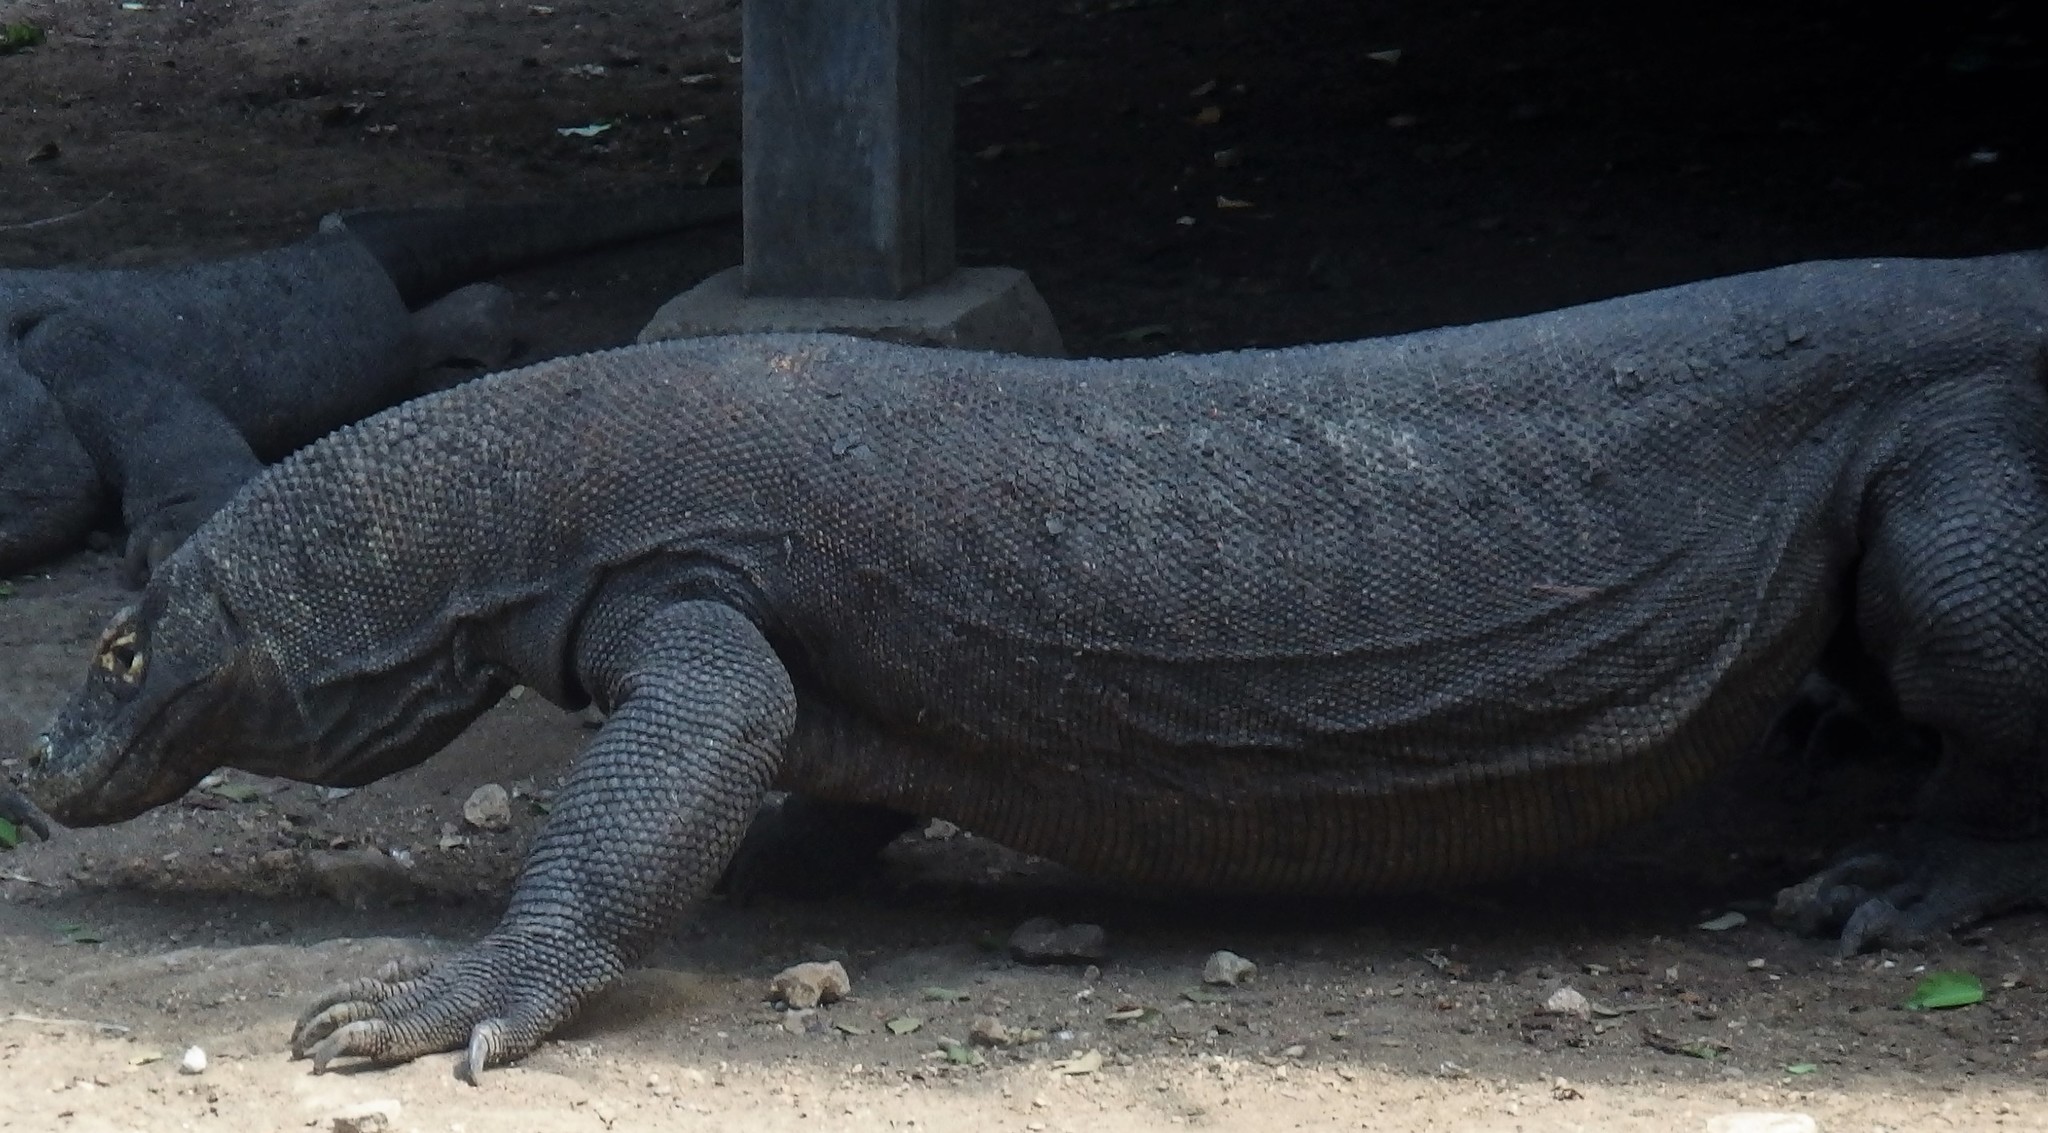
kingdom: Animalia
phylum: Chordata
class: Squamata
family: Varanidae
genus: Varanus
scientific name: Varanus komodoensis
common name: Komodo dragon
